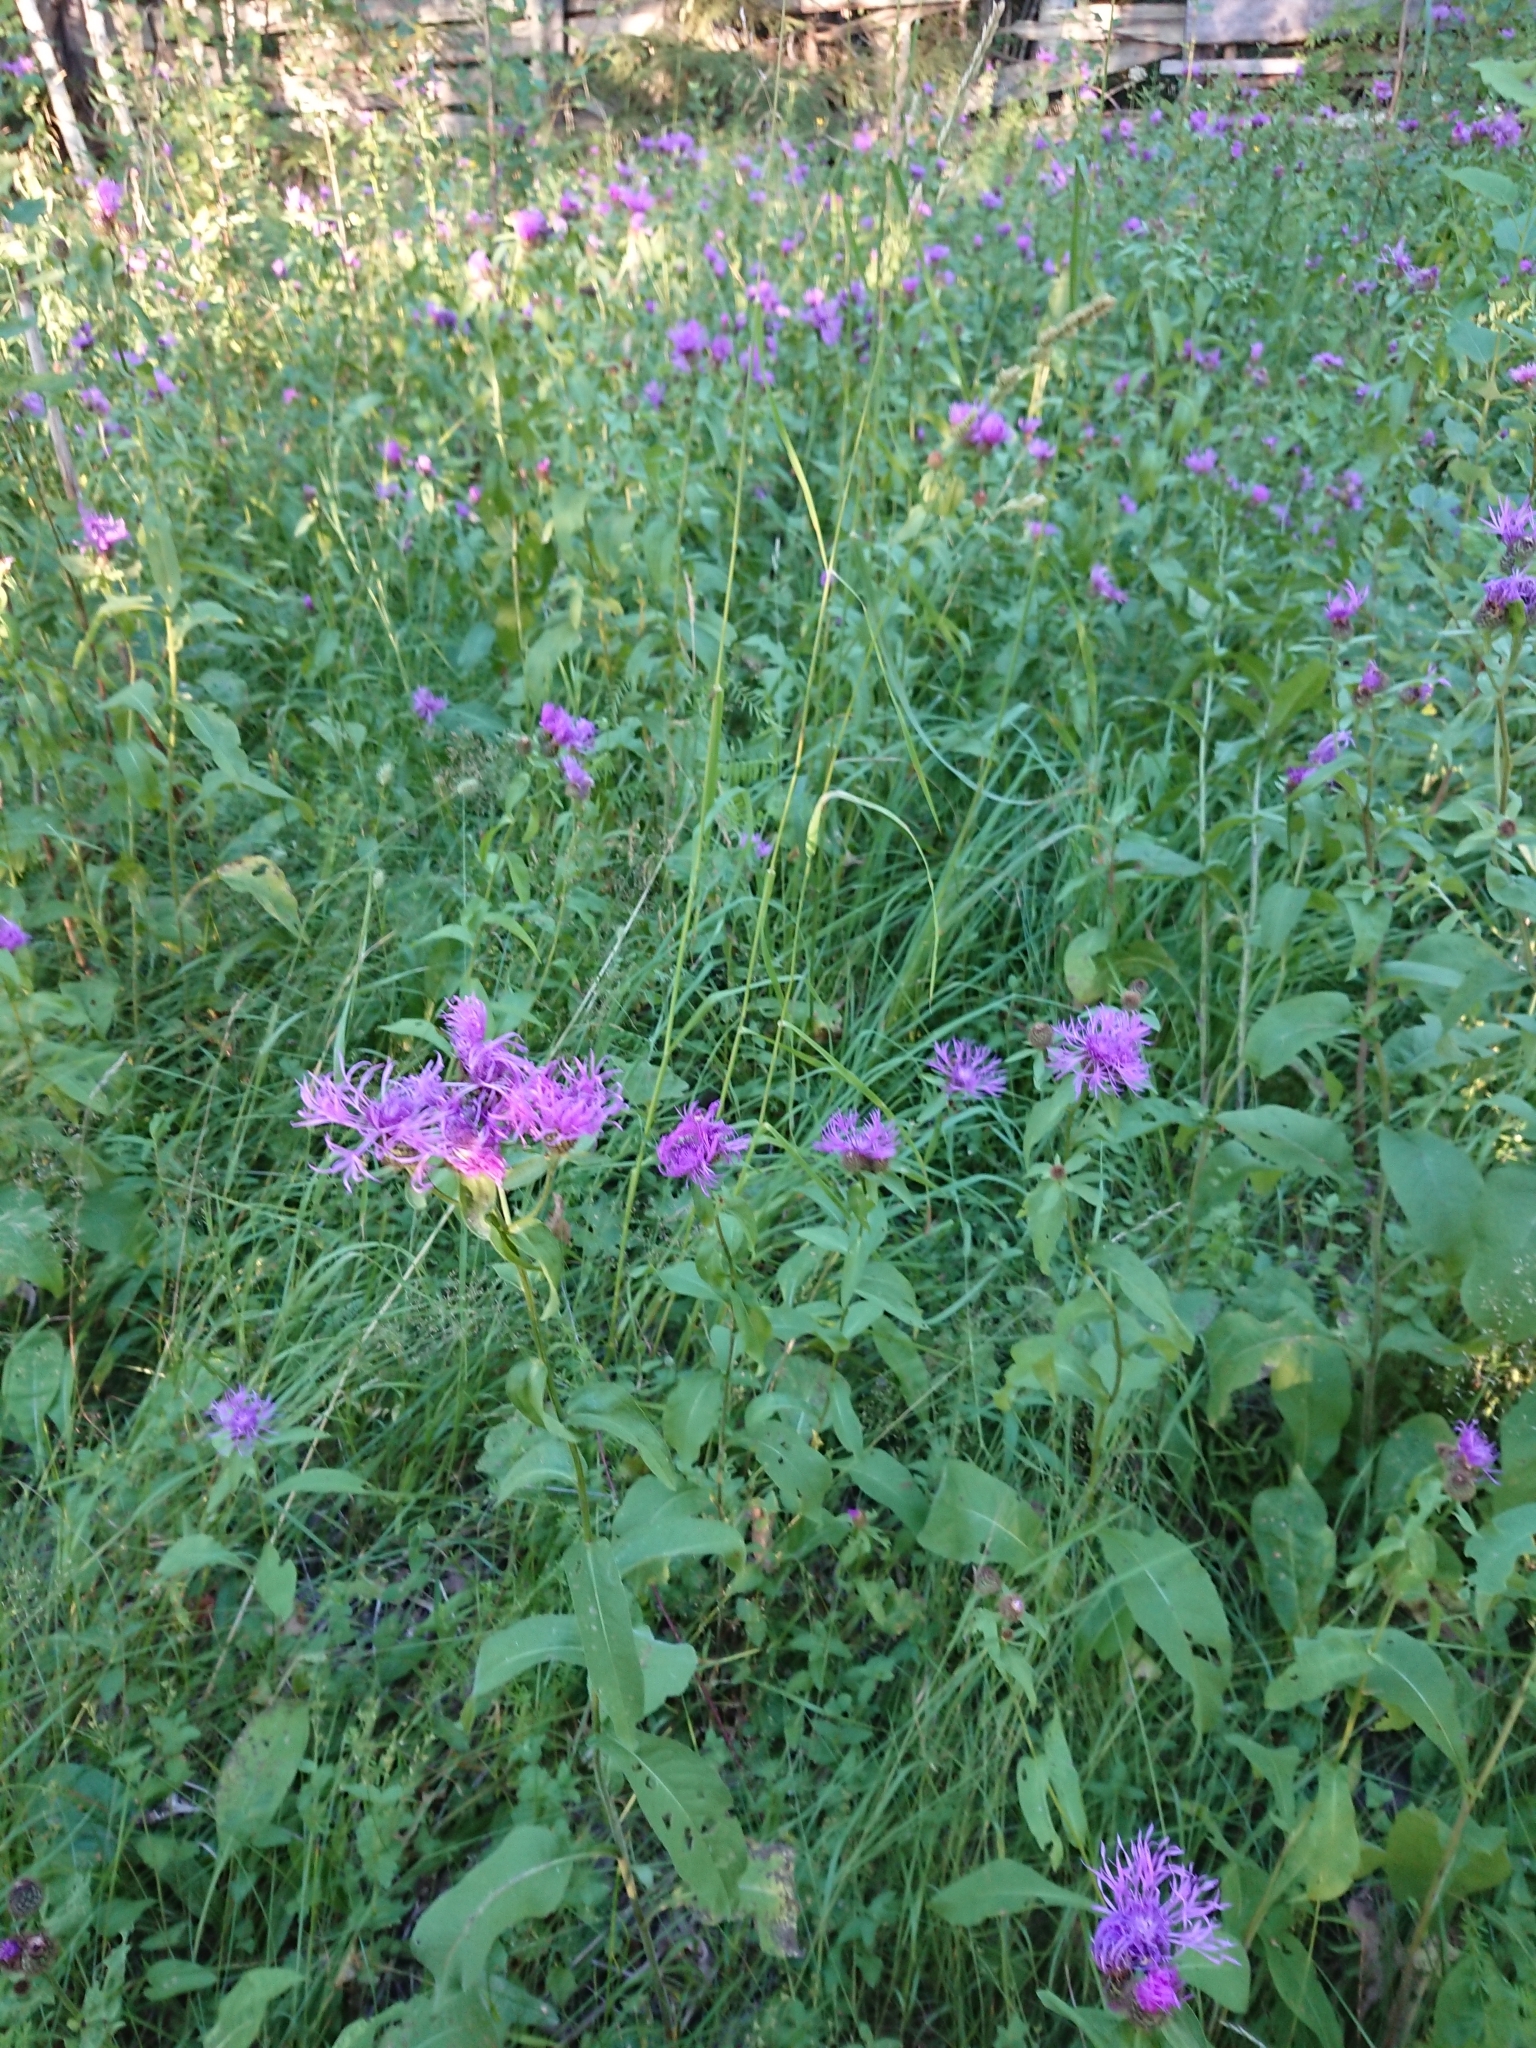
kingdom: Plantae
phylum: Tracheophyta
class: Magnoliopsida
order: Asterales
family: Asteraceae
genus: Centaurea
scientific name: Centaurea phrygia
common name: Wig knapweed
